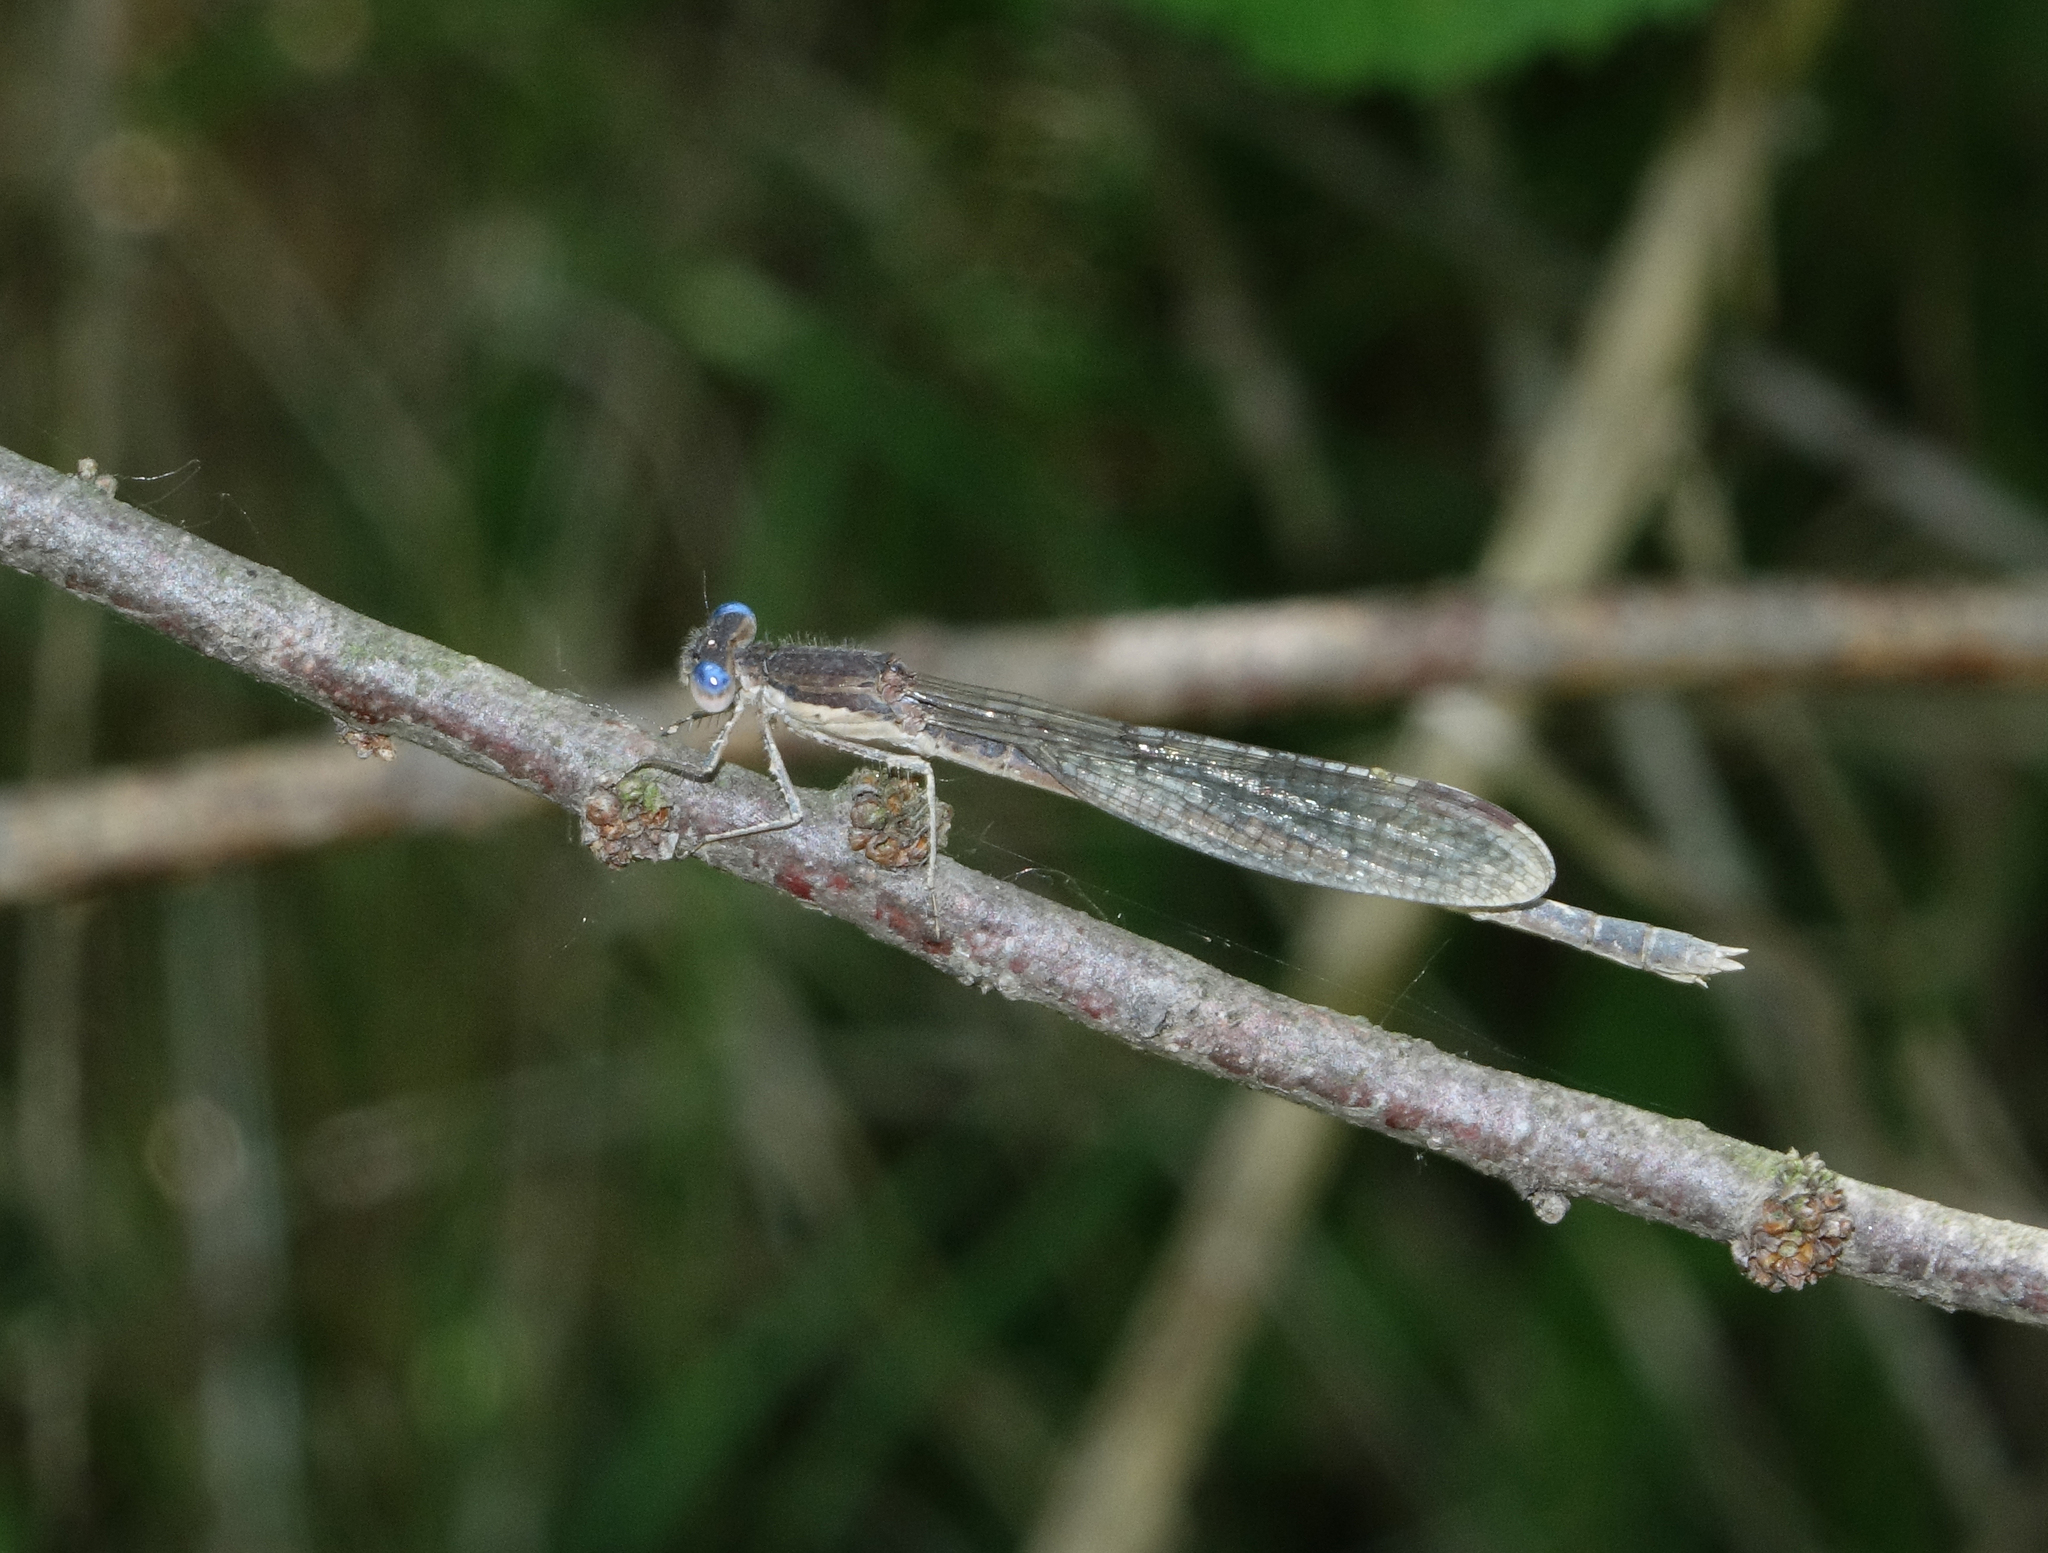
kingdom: Animalia
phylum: Arthropoda
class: Insecta
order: Odonata
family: Lestidae
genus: Sympecma
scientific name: Sympecma fusca
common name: Common winter damsel
